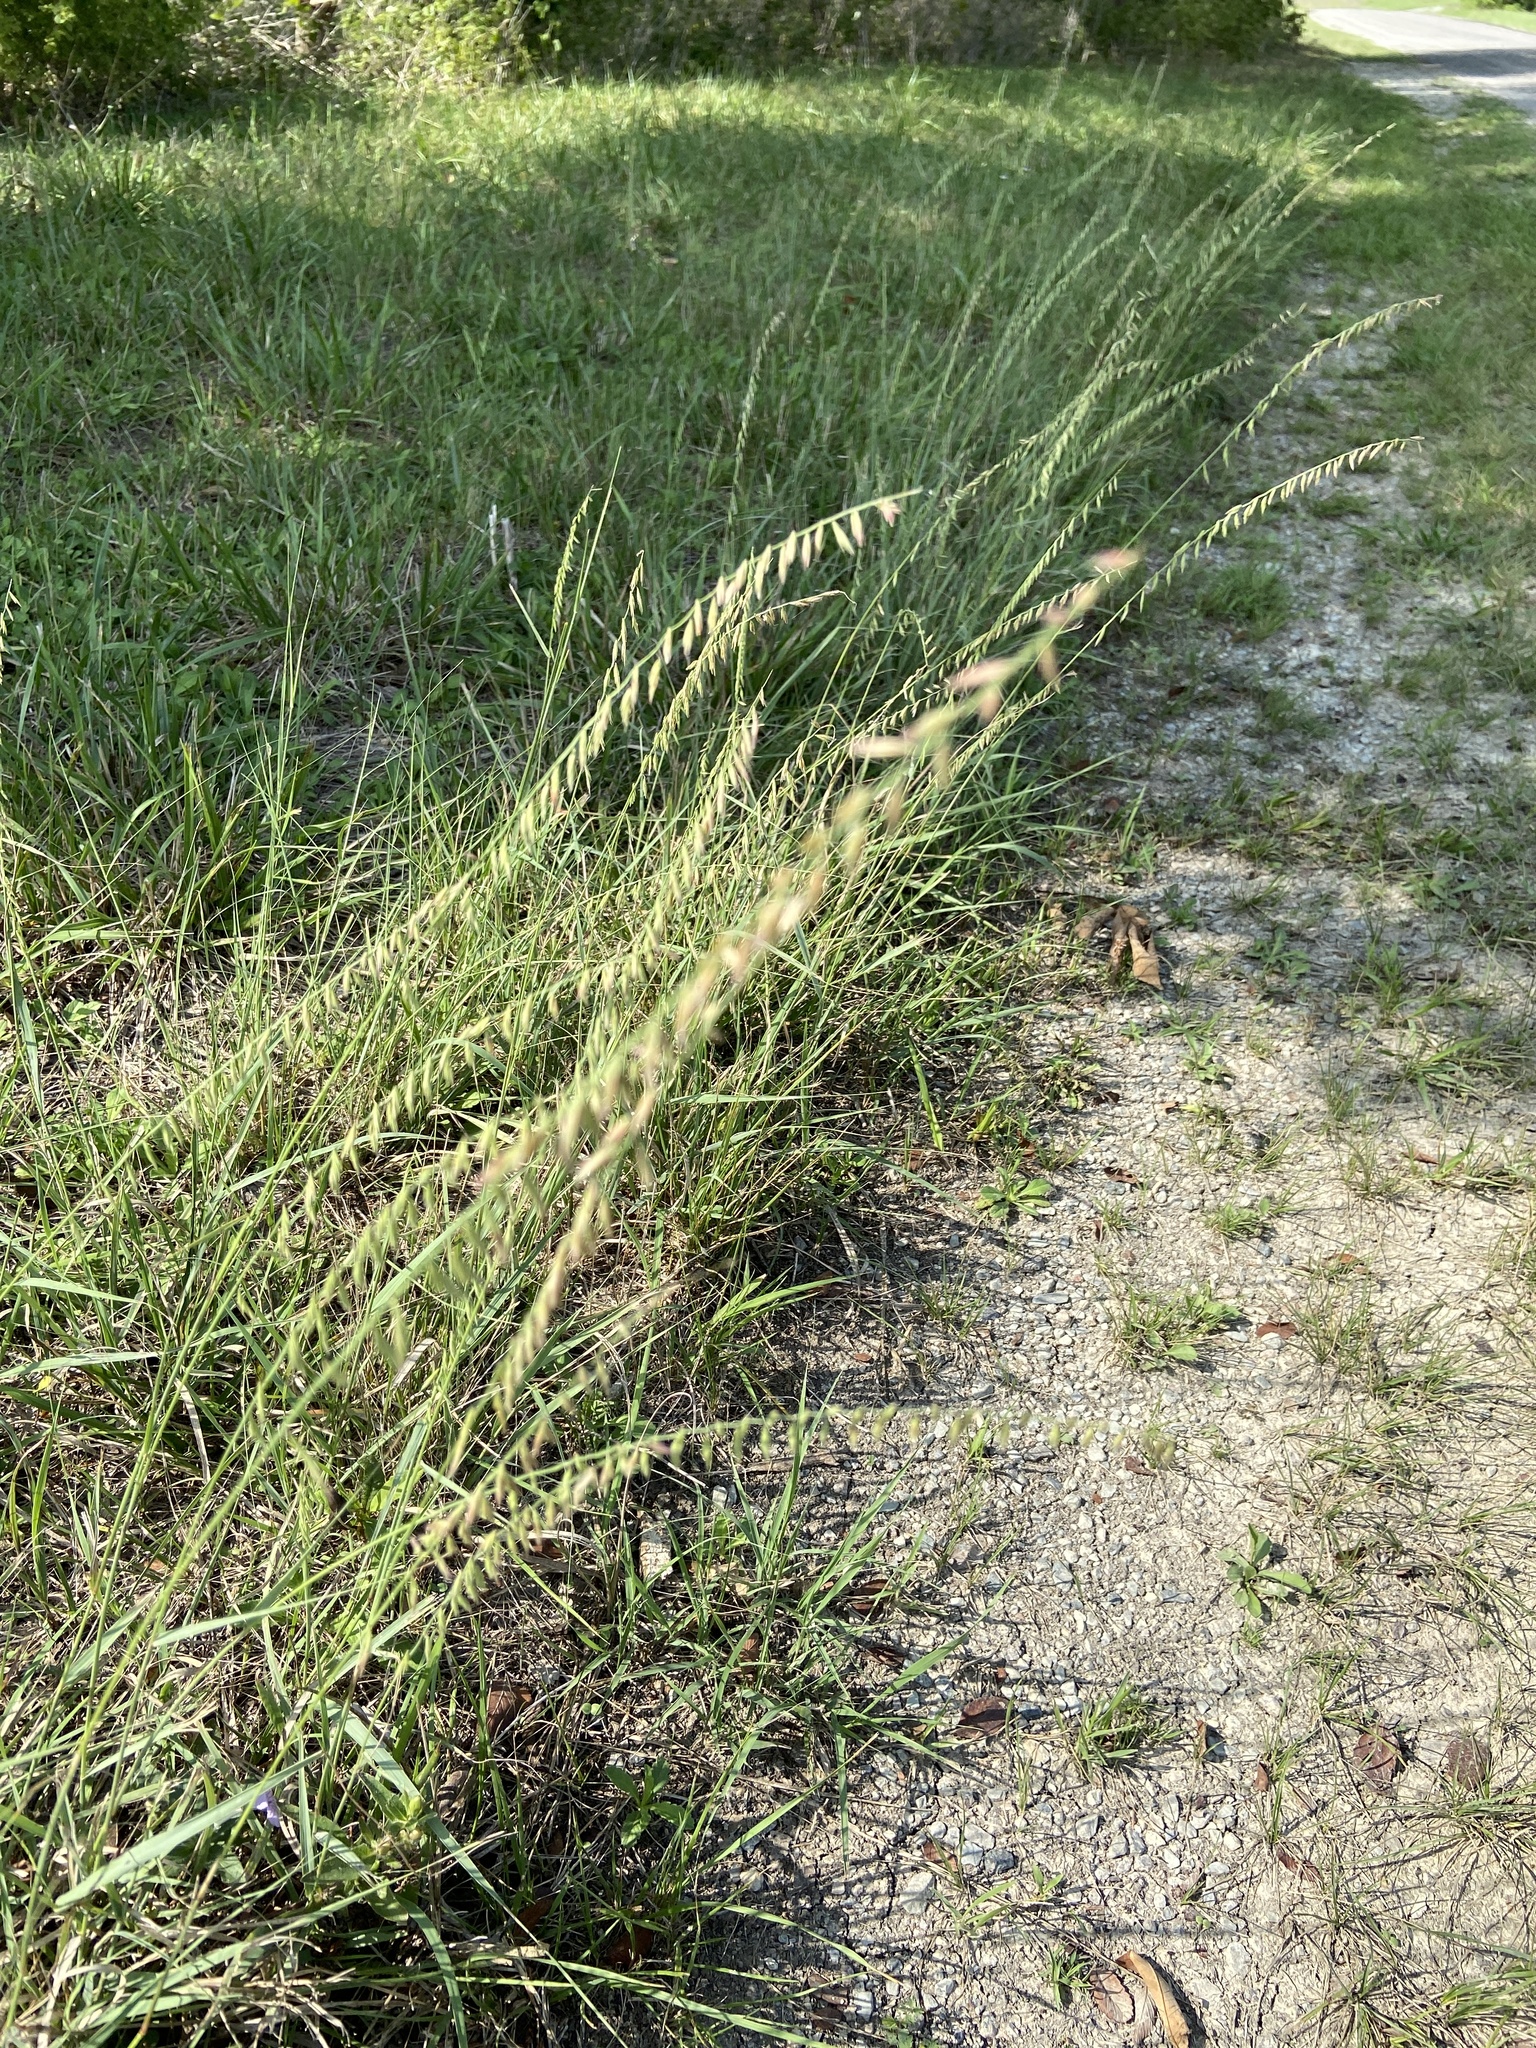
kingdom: Plantae
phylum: Tracheophyta
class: Liliopsida
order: Poales
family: Poaceae
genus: Bouteloua
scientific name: Bouteloua curtipendula
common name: Side-oats grama
